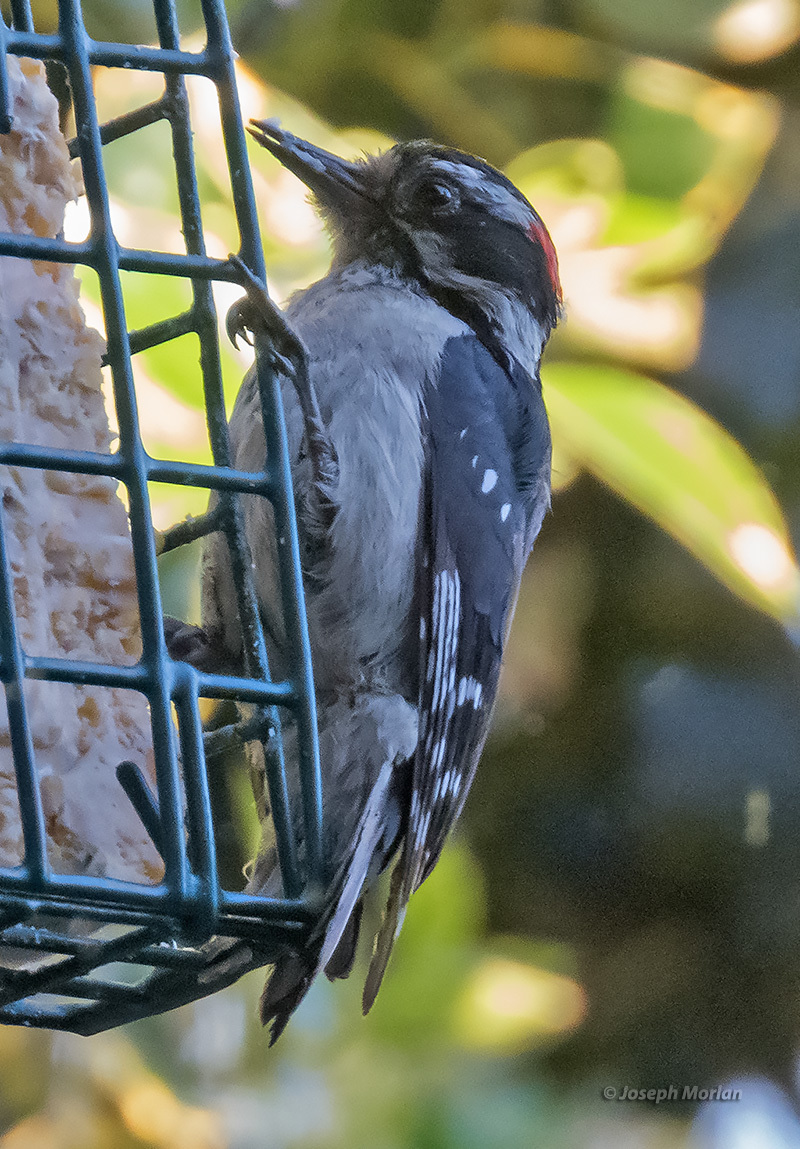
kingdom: Animalia
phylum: Chordata
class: Aves
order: Piciformes
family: Picidae
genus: Dryobates
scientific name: Dryobates pubescens
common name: Downy woodpecker
